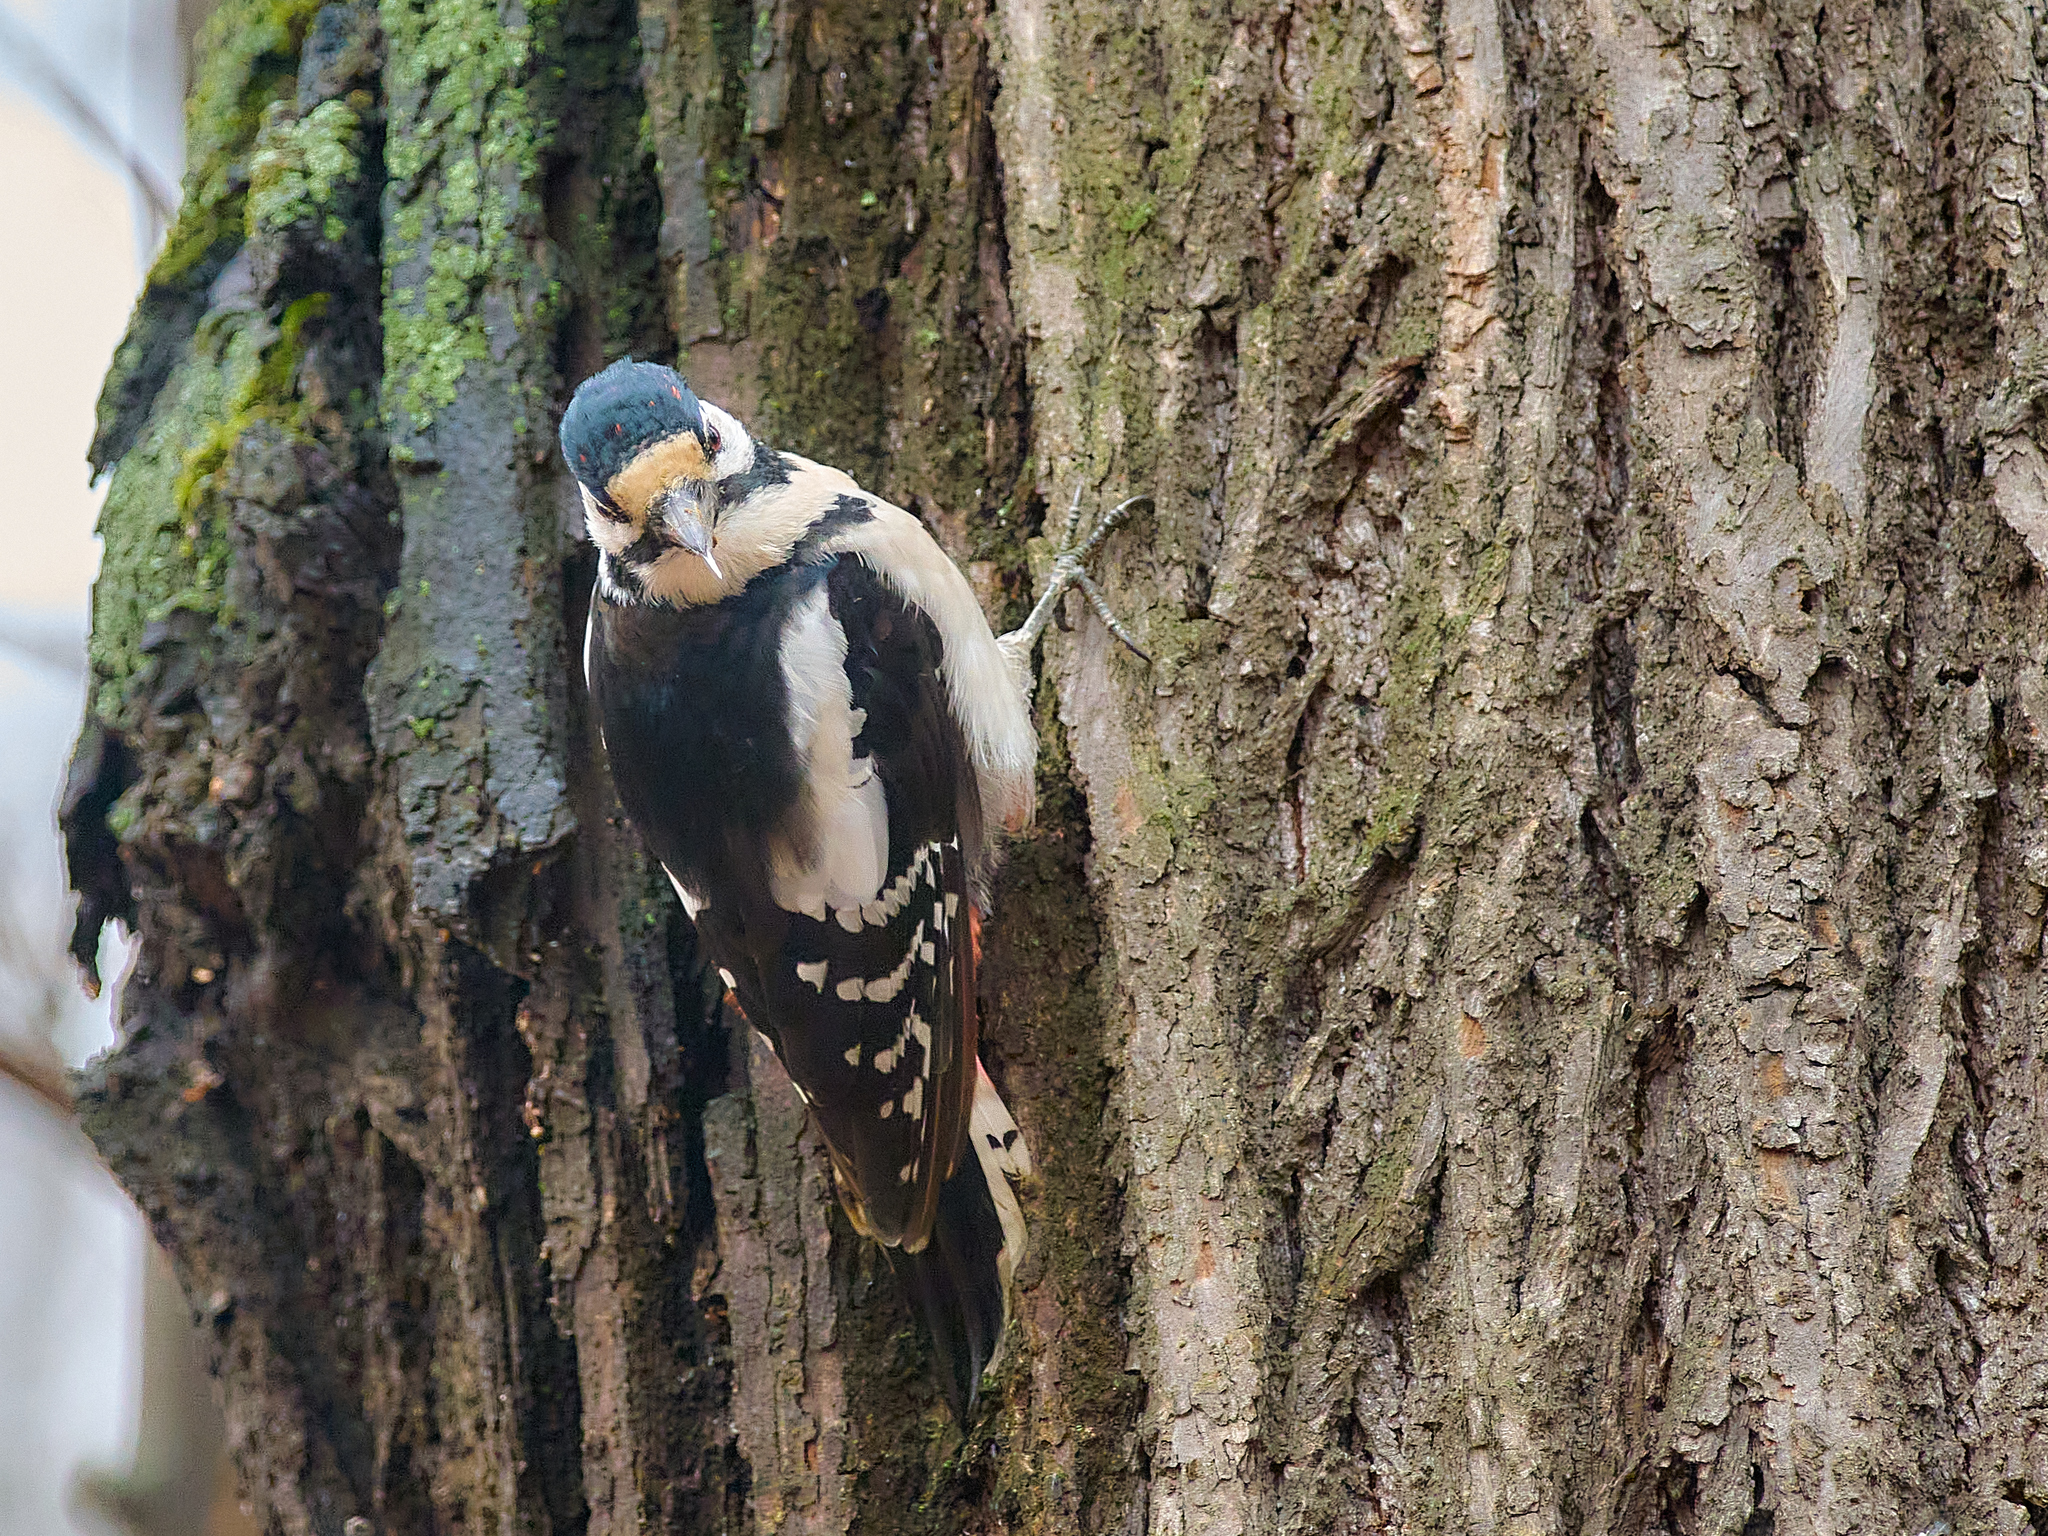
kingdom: Animalia
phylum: Chordata
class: Aves
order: Piciformes
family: Picidae
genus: Dendrocopos
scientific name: Dendrocopos major
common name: Great spotted woodpecker
